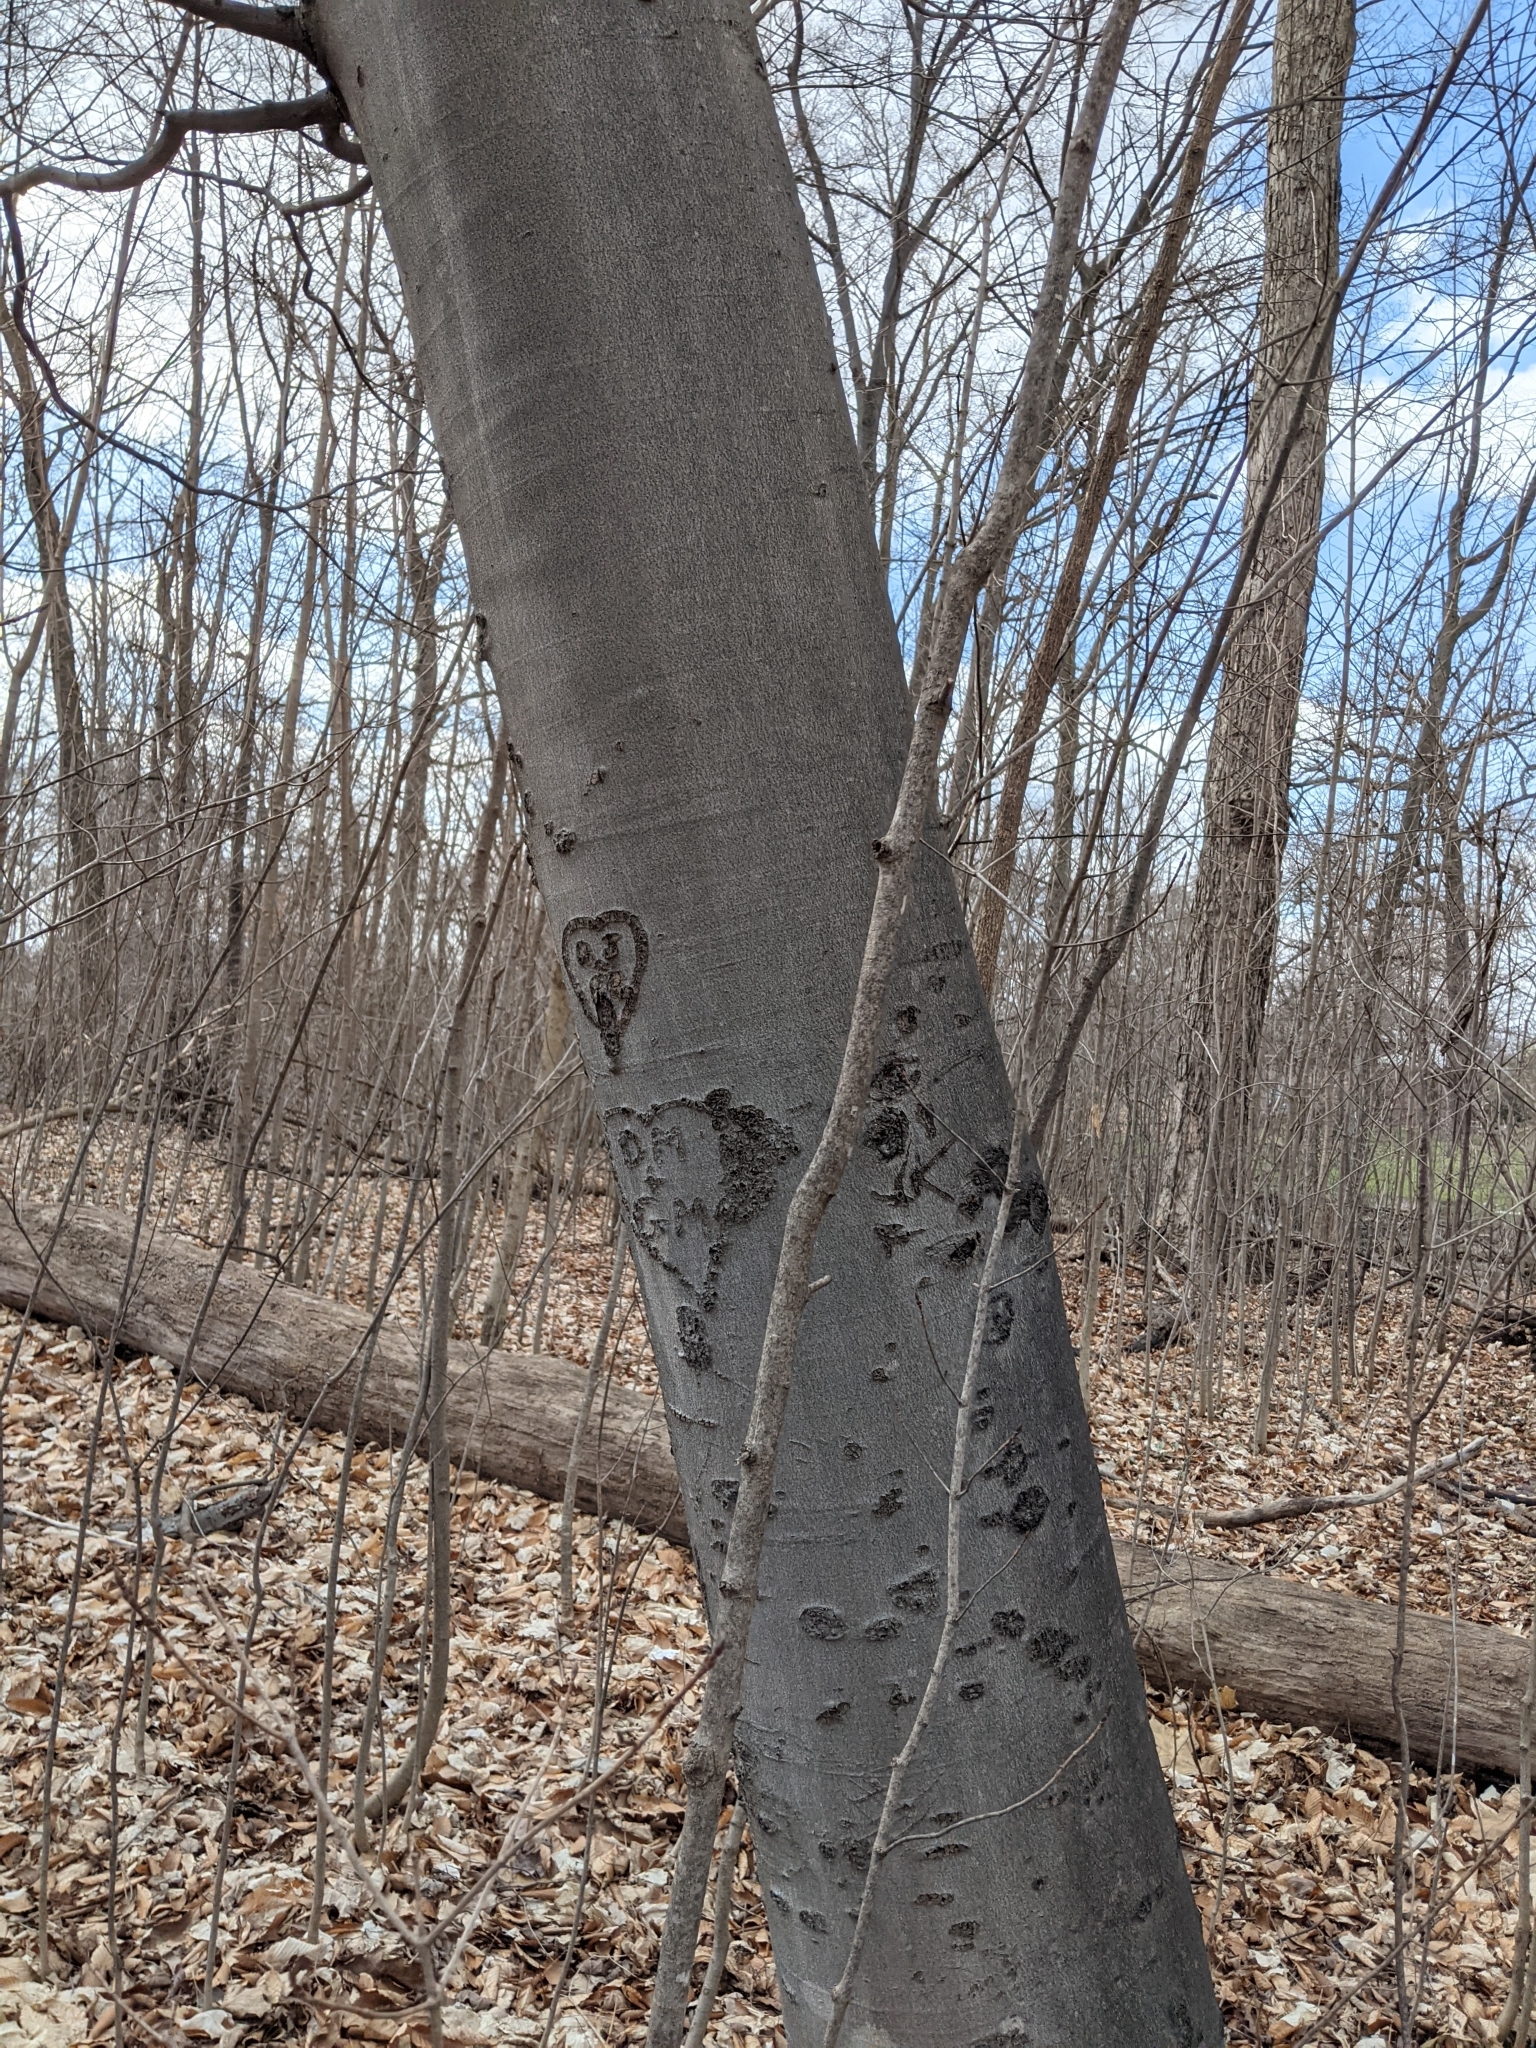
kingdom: Plantae
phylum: Tracheophyta
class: Magnoliopsida
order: Fagales
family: Fagaceae
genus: Fagus
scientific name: Fagus grandifolia
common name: American beech
